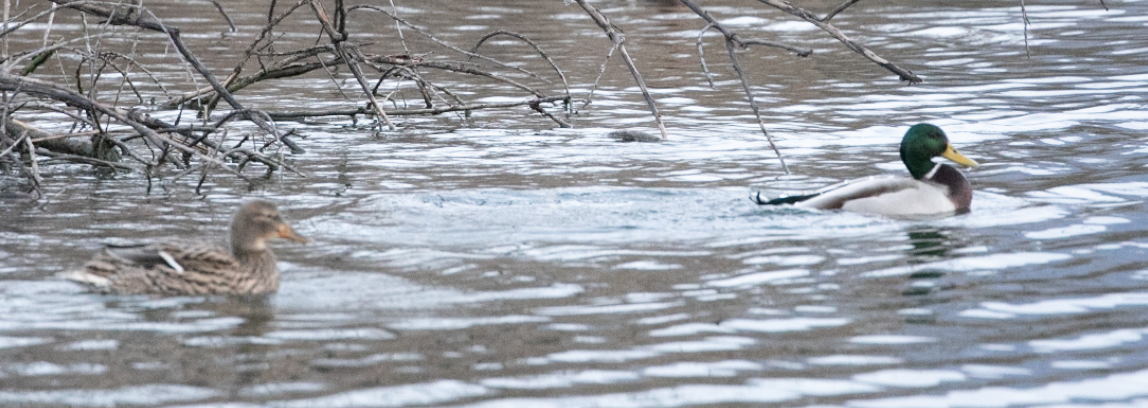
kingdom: Animalia
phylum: Chordata
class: Aves
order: Anseriformes
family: Anatidae
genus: Anas
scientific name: Anas platyrhynchos
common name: Mallard
